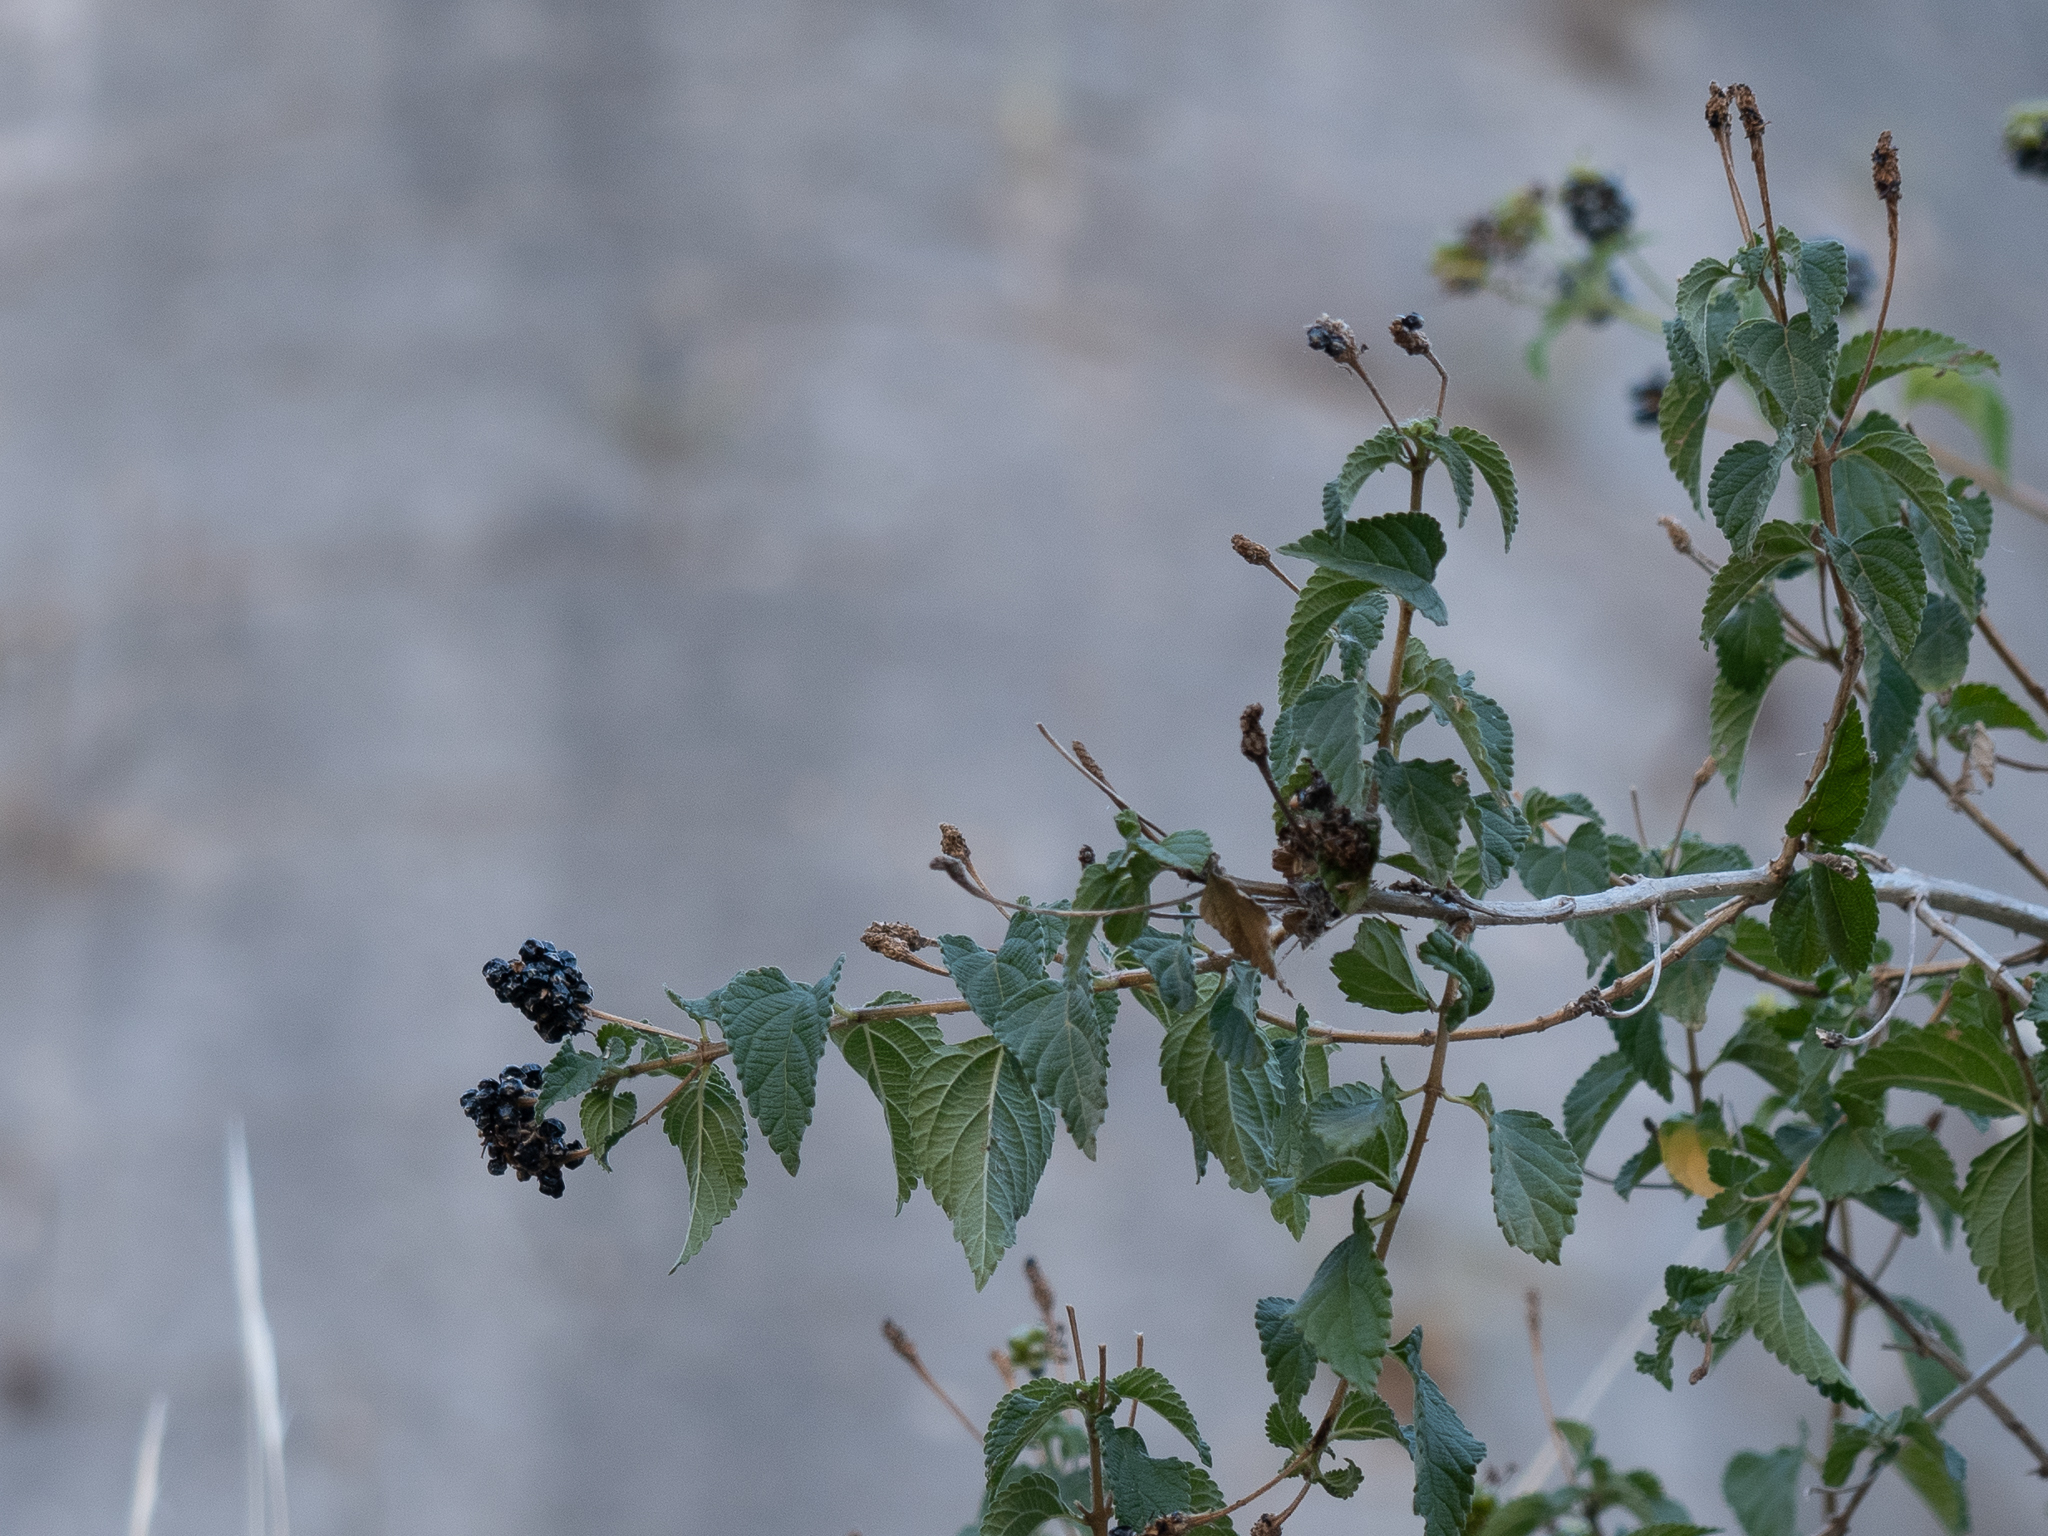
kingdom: Plantae
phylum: Tracheophyta
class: Magnoliopsida
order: Lamiales
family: Verbenaceae
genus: Lantana
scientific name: Lantana camara
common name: Lantana
